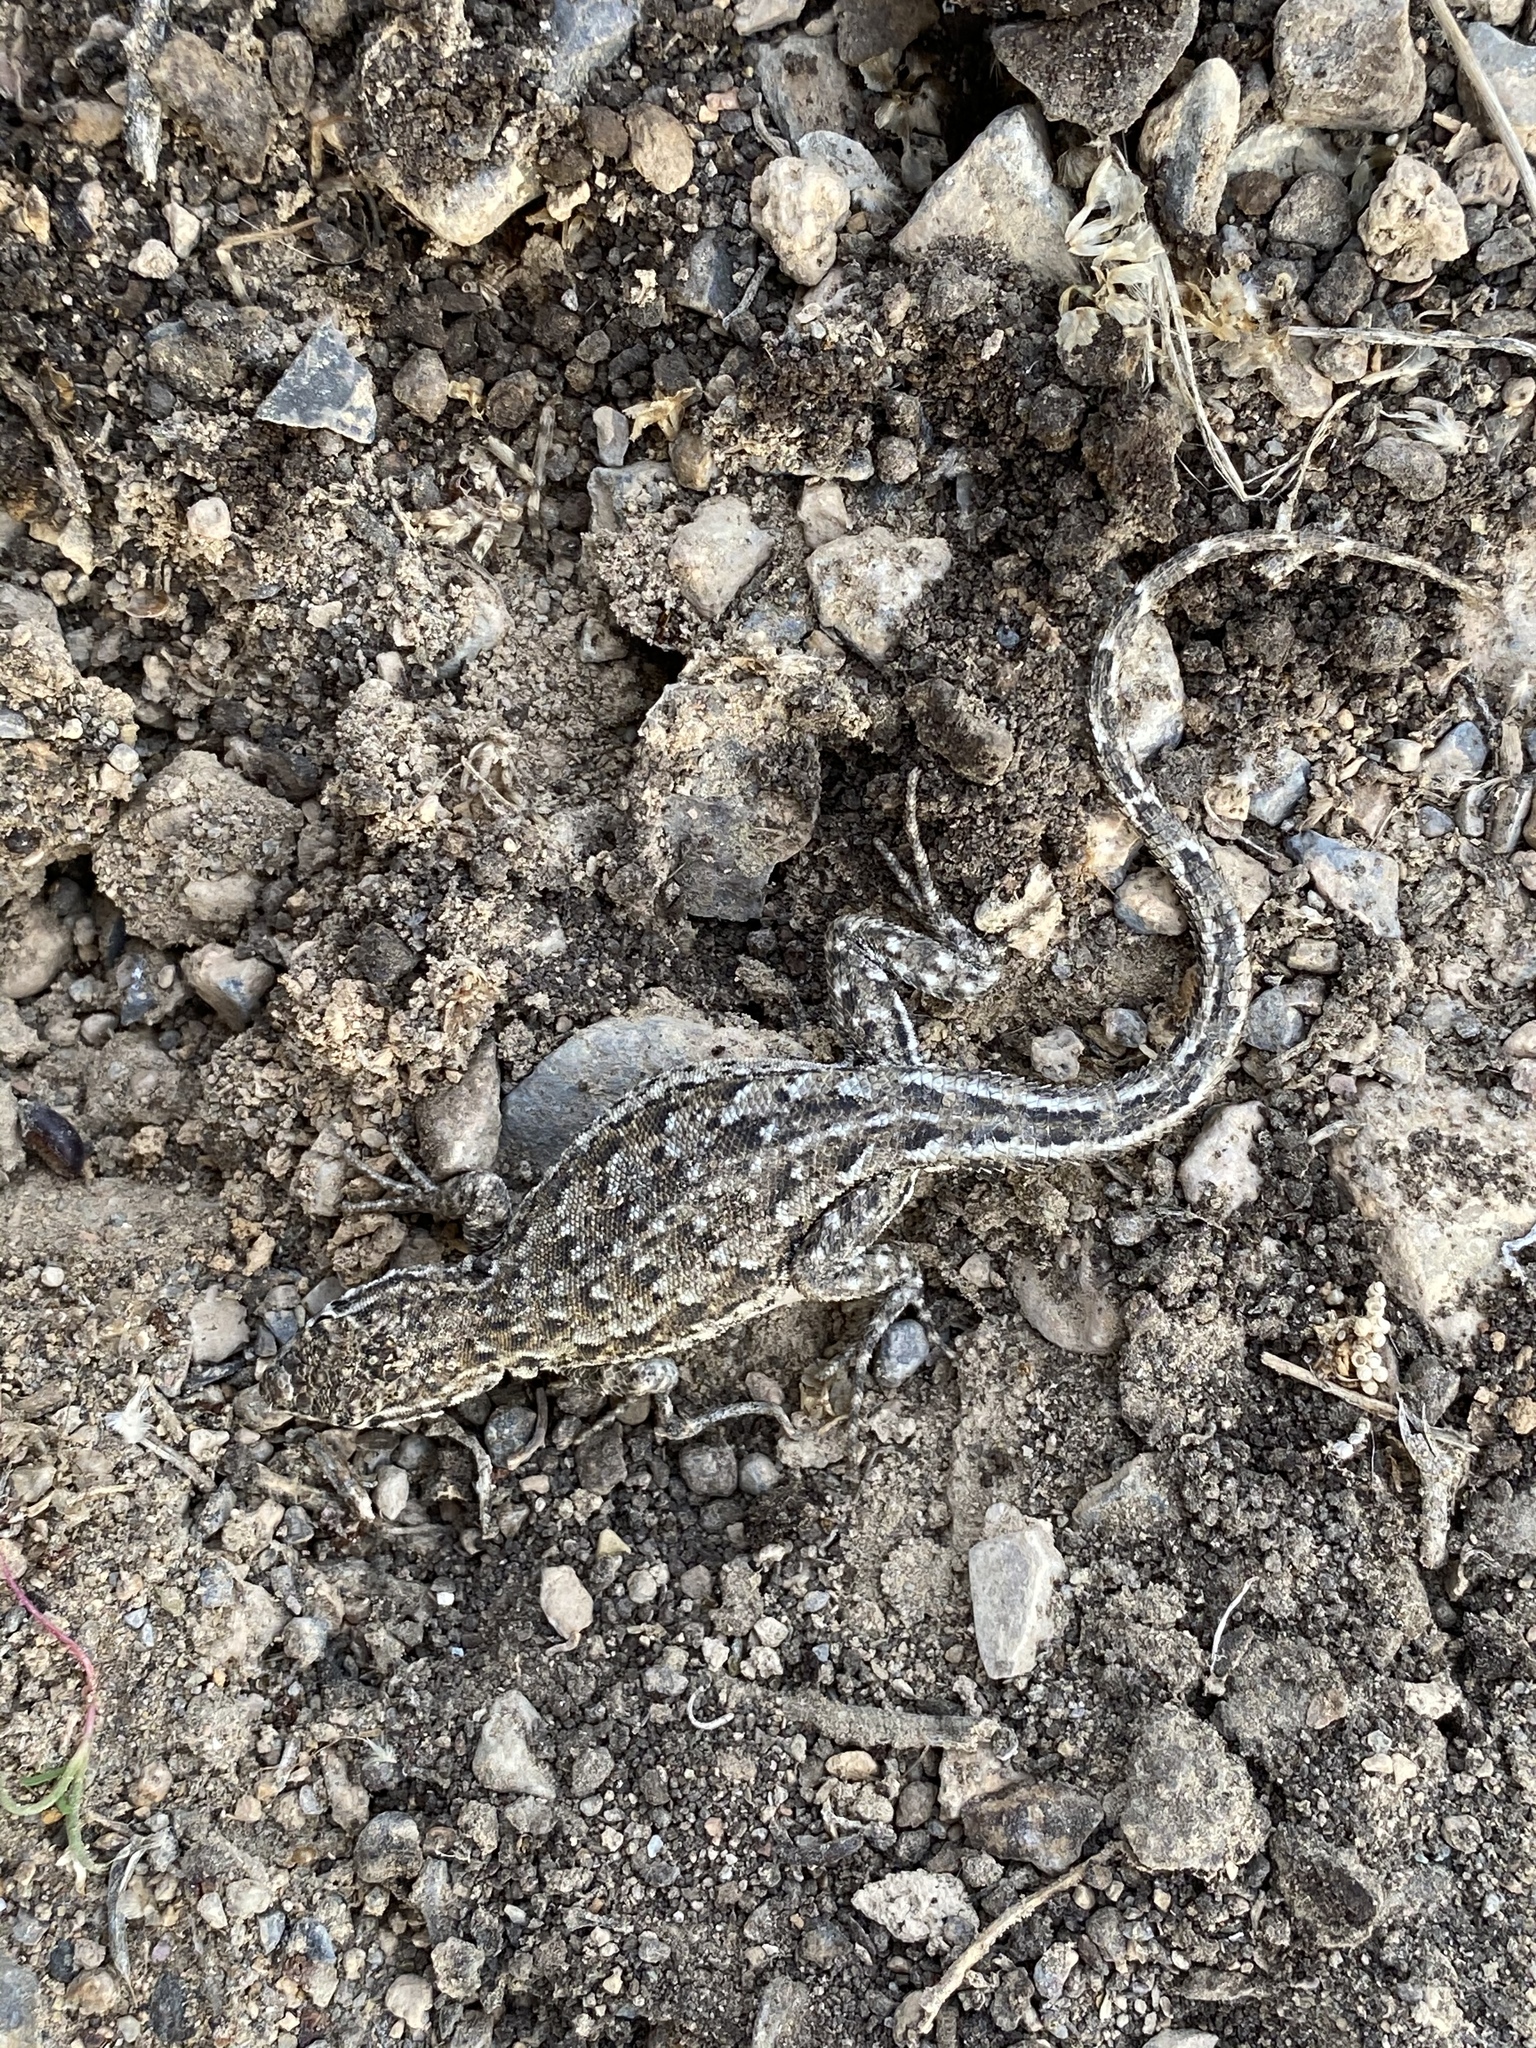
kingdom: Animalia
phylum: Chordata
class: Squamata
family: Phrynosomatidae
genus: Uta
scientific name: Uta stansburiana
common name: Side-blotched lizard
